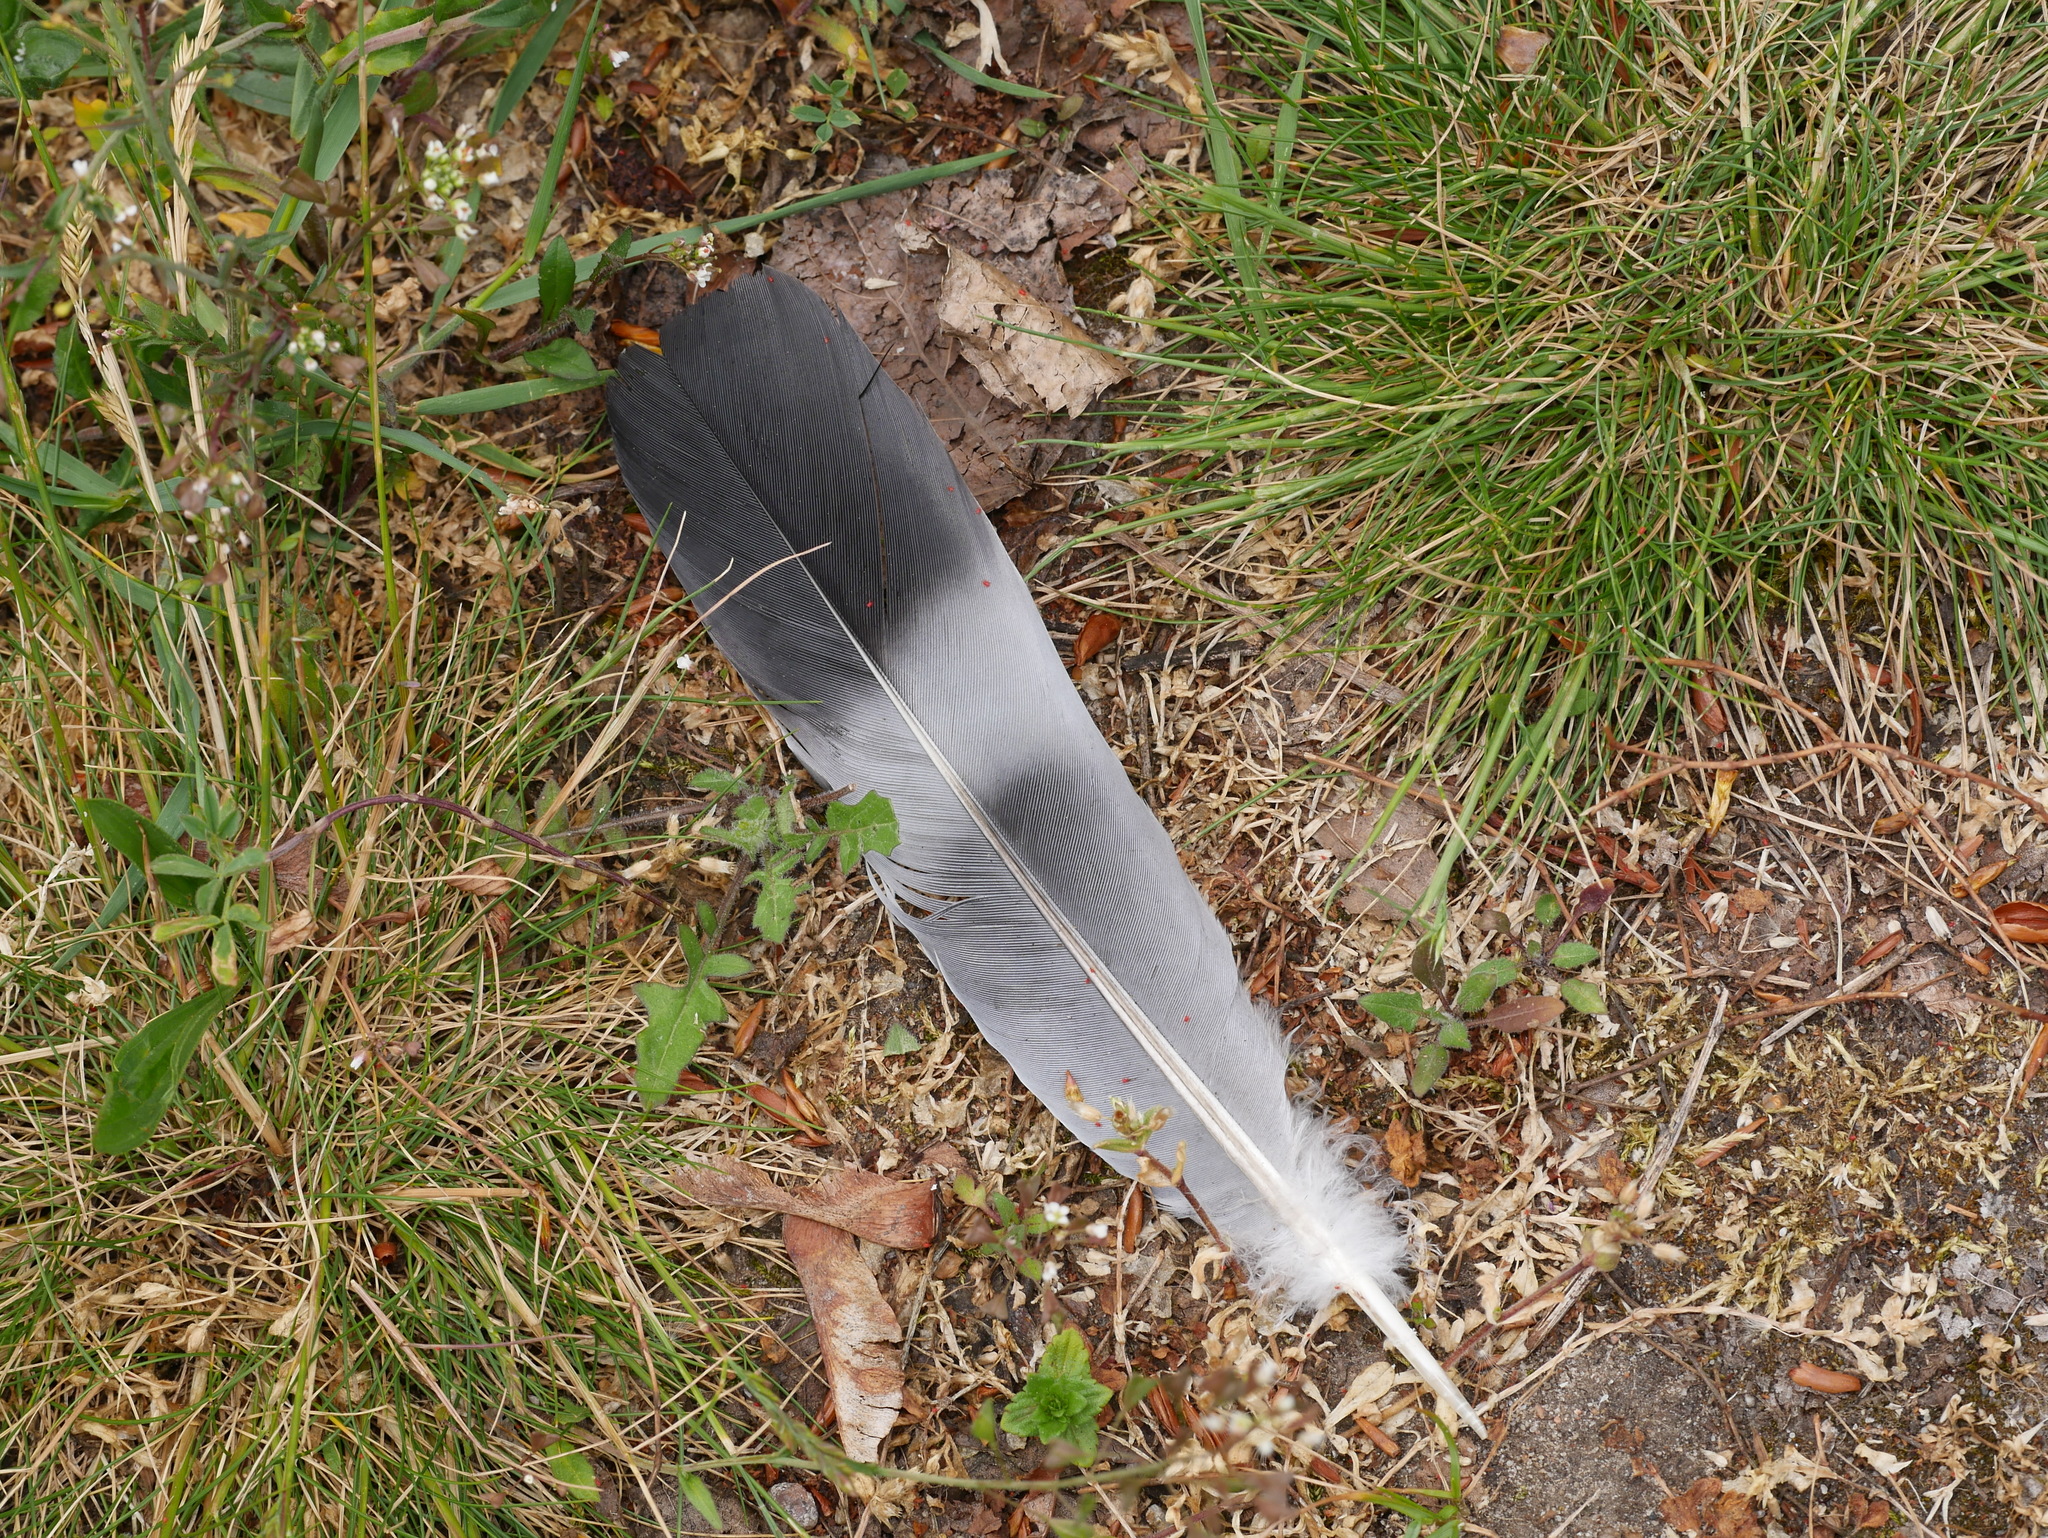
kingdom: Animalia
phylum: Chordata
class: Aves
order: Columbiformes
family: Columbidae
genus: Columba
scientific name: Columba palumbus
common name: Common wood pigeon
